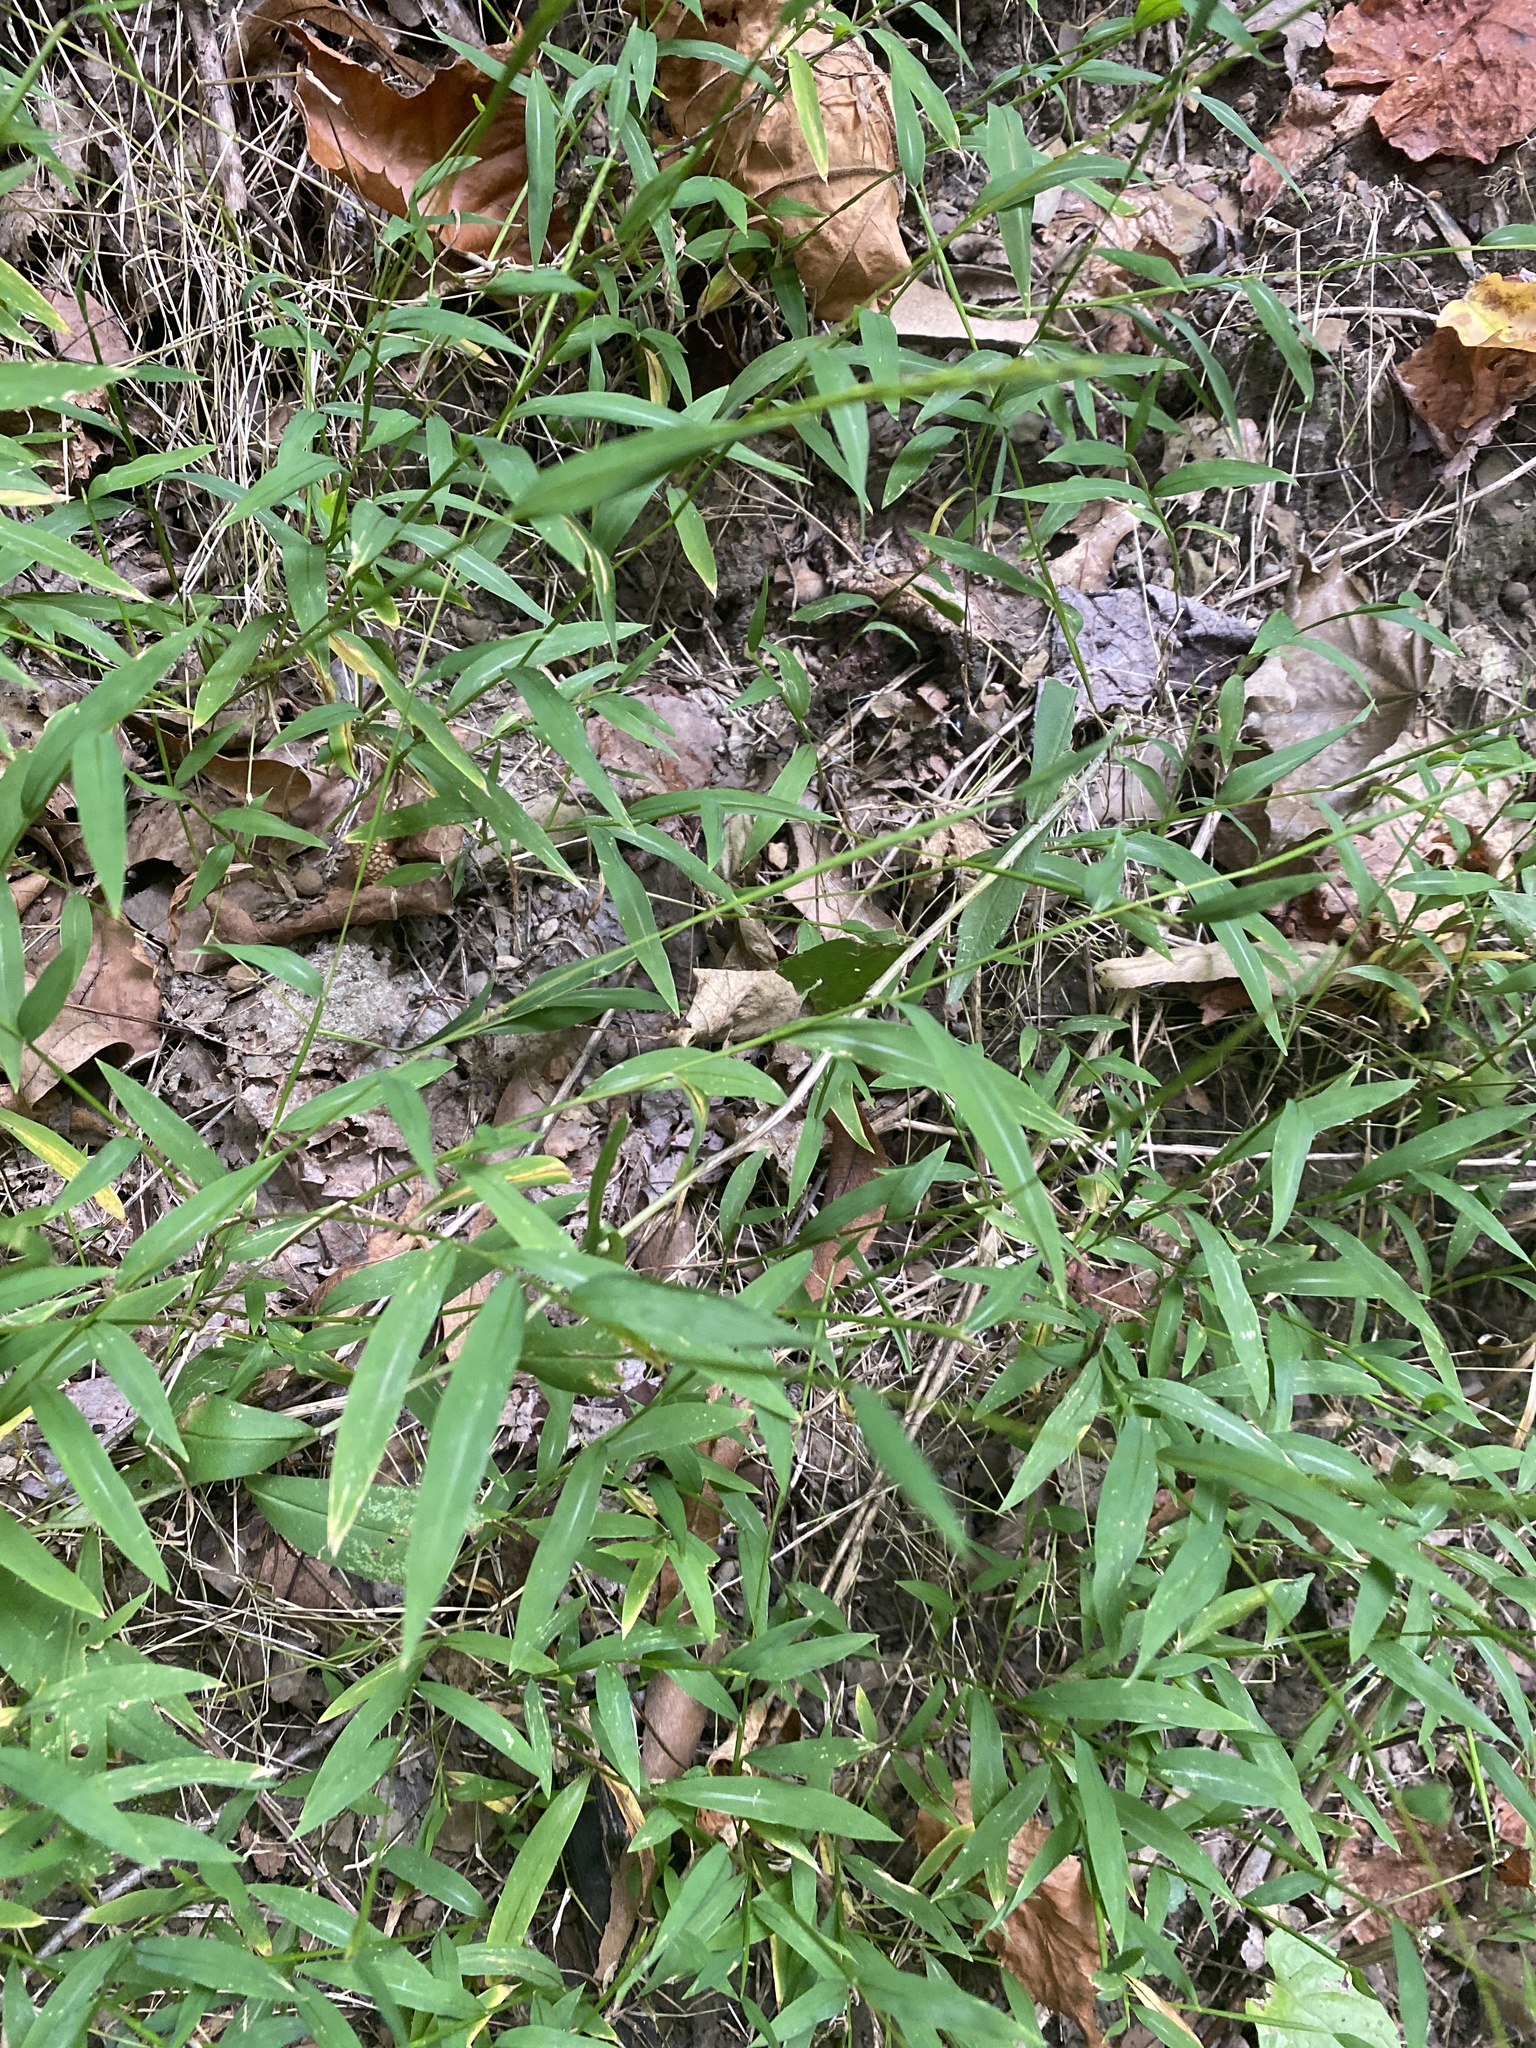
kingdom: Plantae
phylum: Tracheophyta
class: Liliopsida
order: Poales
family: Poaceae
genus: Microstegium
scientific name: Microstegium vimineum
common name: Japanese stiltgrass
